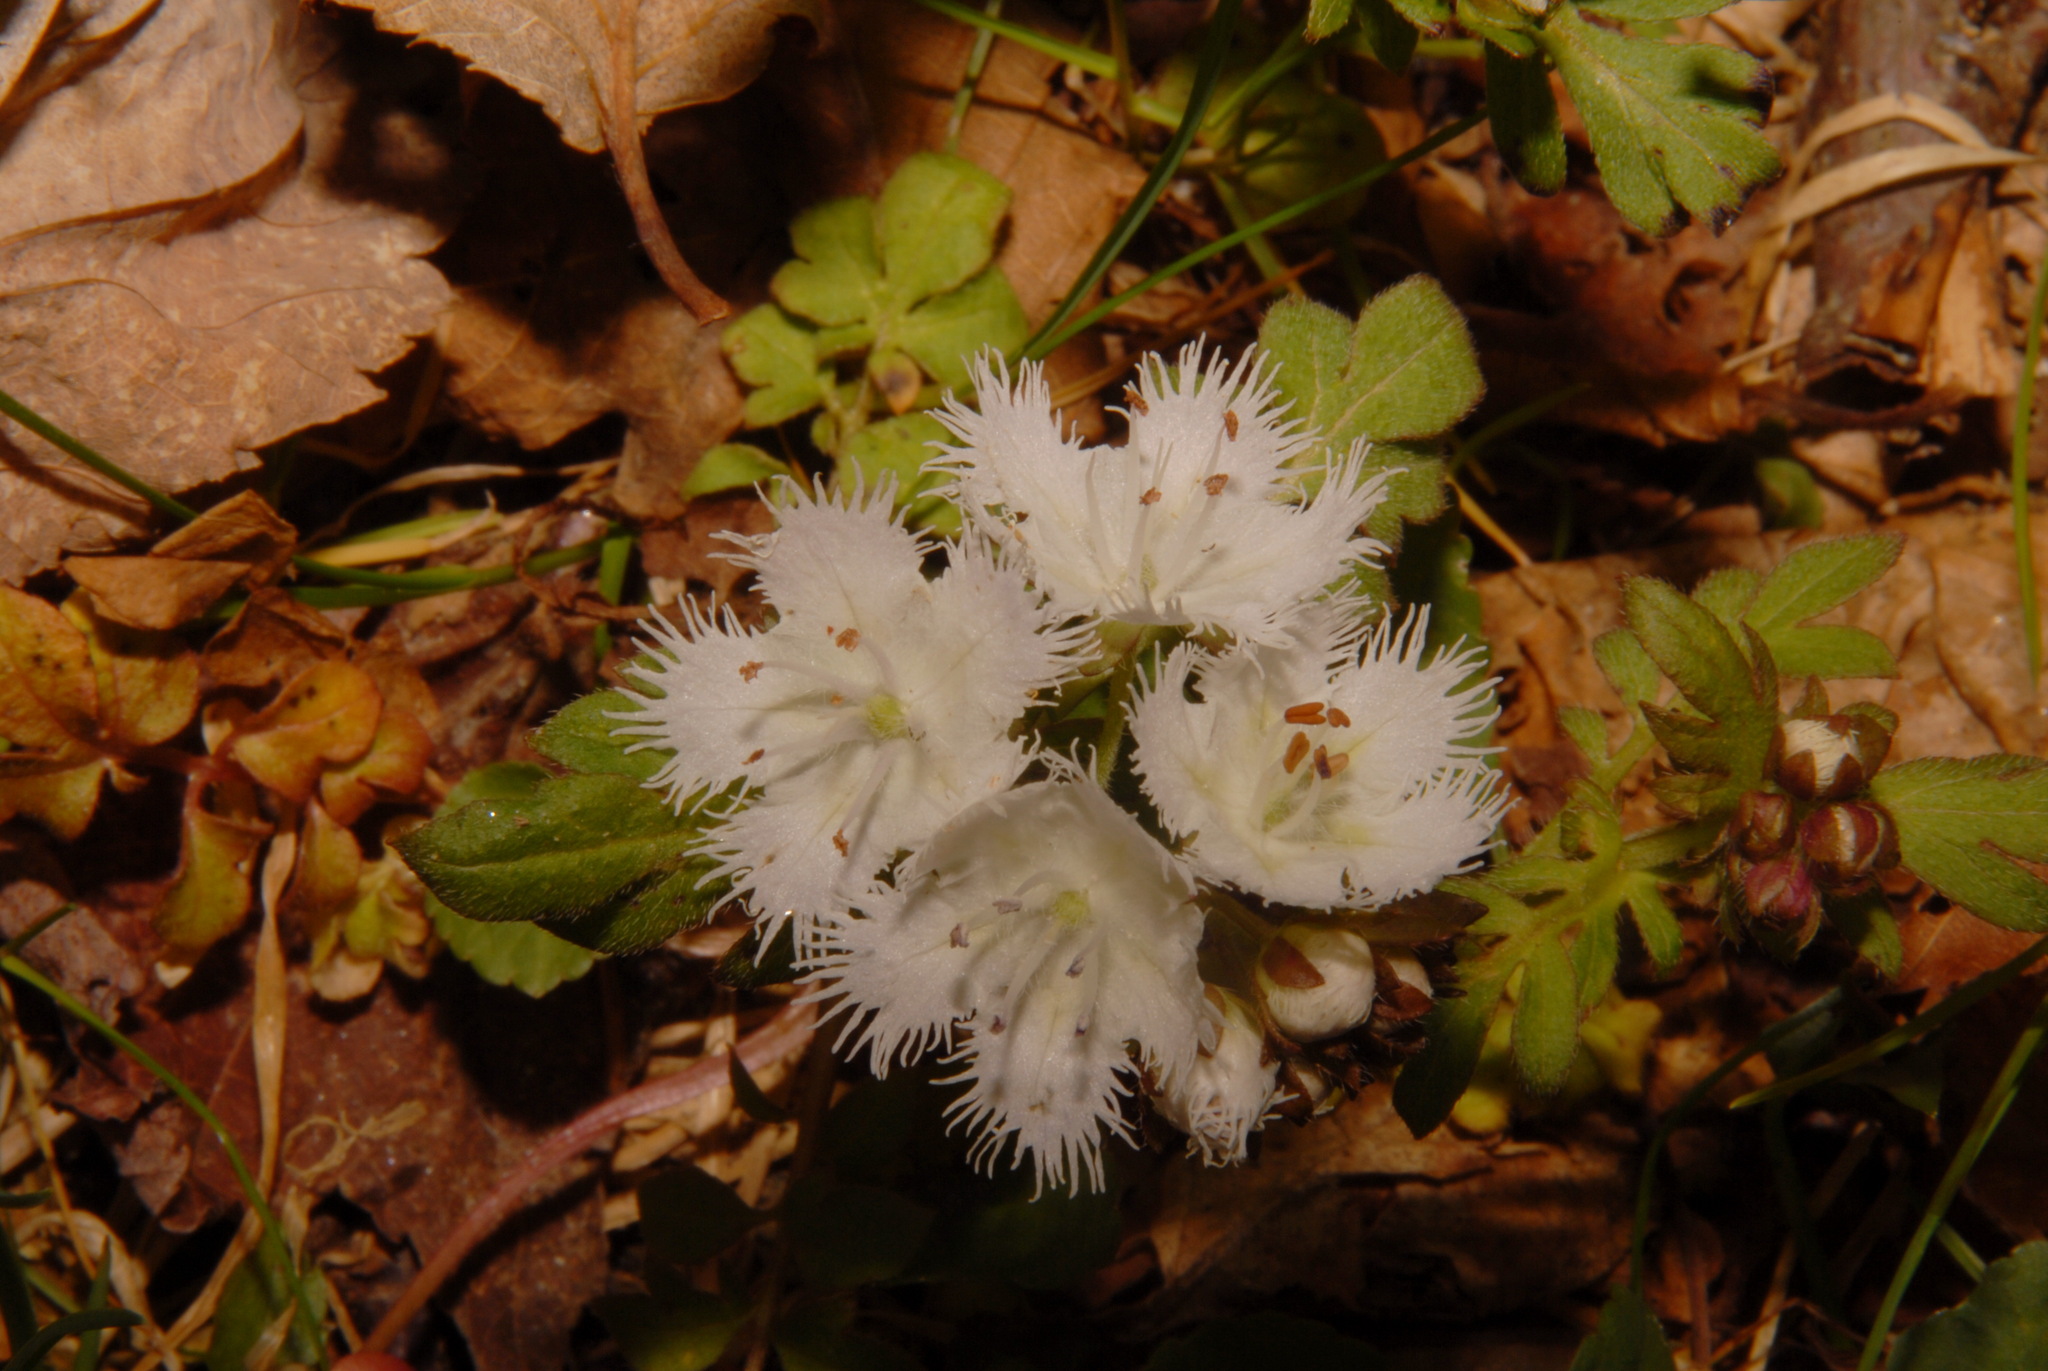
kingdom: Plantae
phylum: Tracheophyta
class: Magnoliopsida
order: Boraginales
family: Hydrophyllaceae
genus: Phacelia
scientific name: Phacelia fimbriata
